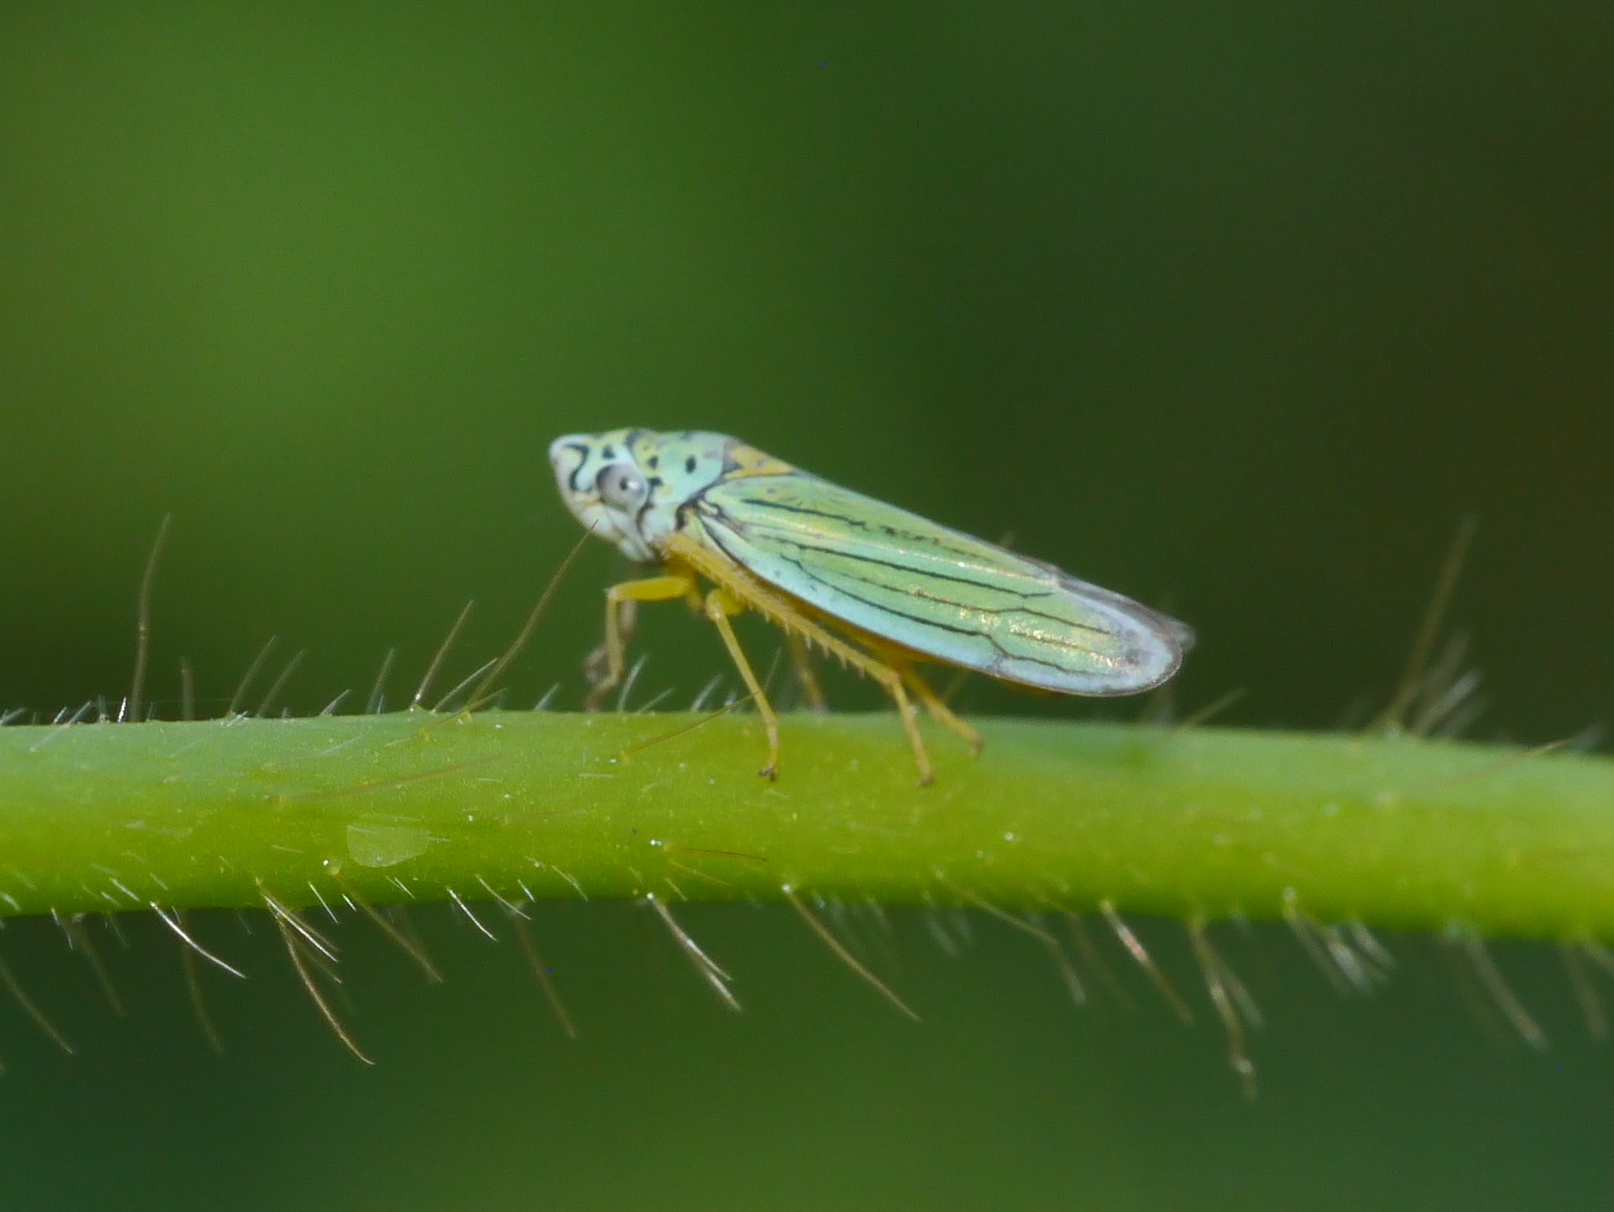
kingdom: Animalia
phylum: Arthropoda
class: Insecta
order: Hemiptera
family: Cicadellidae
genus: Graphocephala
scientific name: Graphocephala atropunctata
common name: Blue-green sharpshooter
